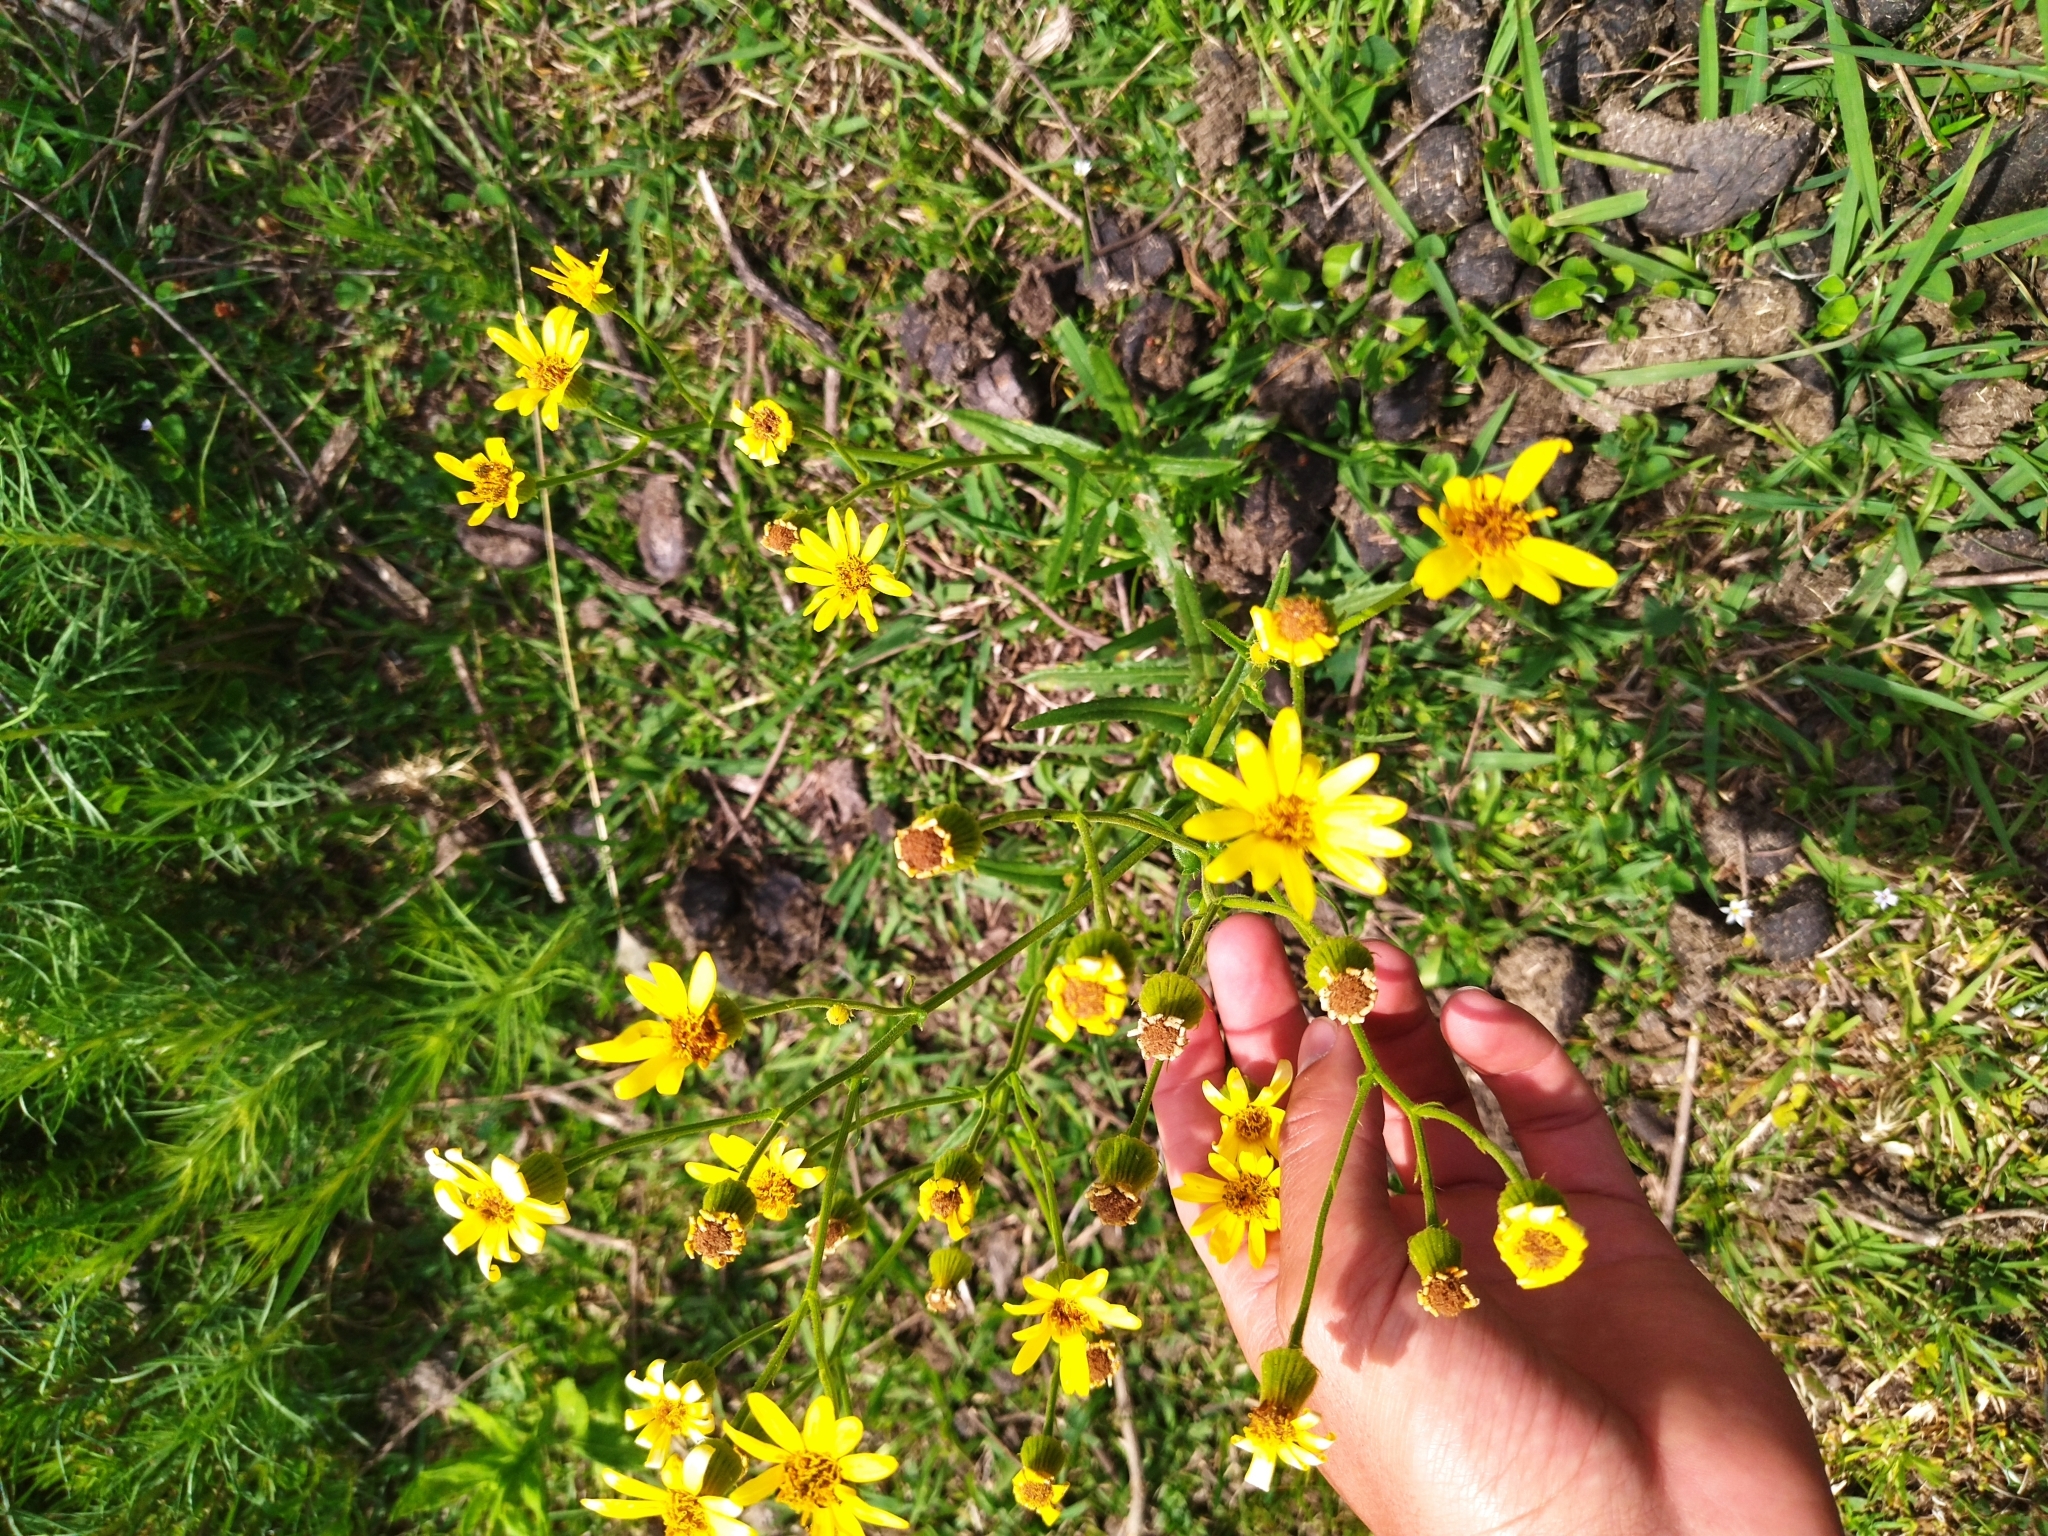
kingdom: Plantae
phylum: Tracheophyta
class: Magnoliopsida
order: Asterales
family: Asteraceae
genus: Senecio
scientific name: Senecio heterotrichius
